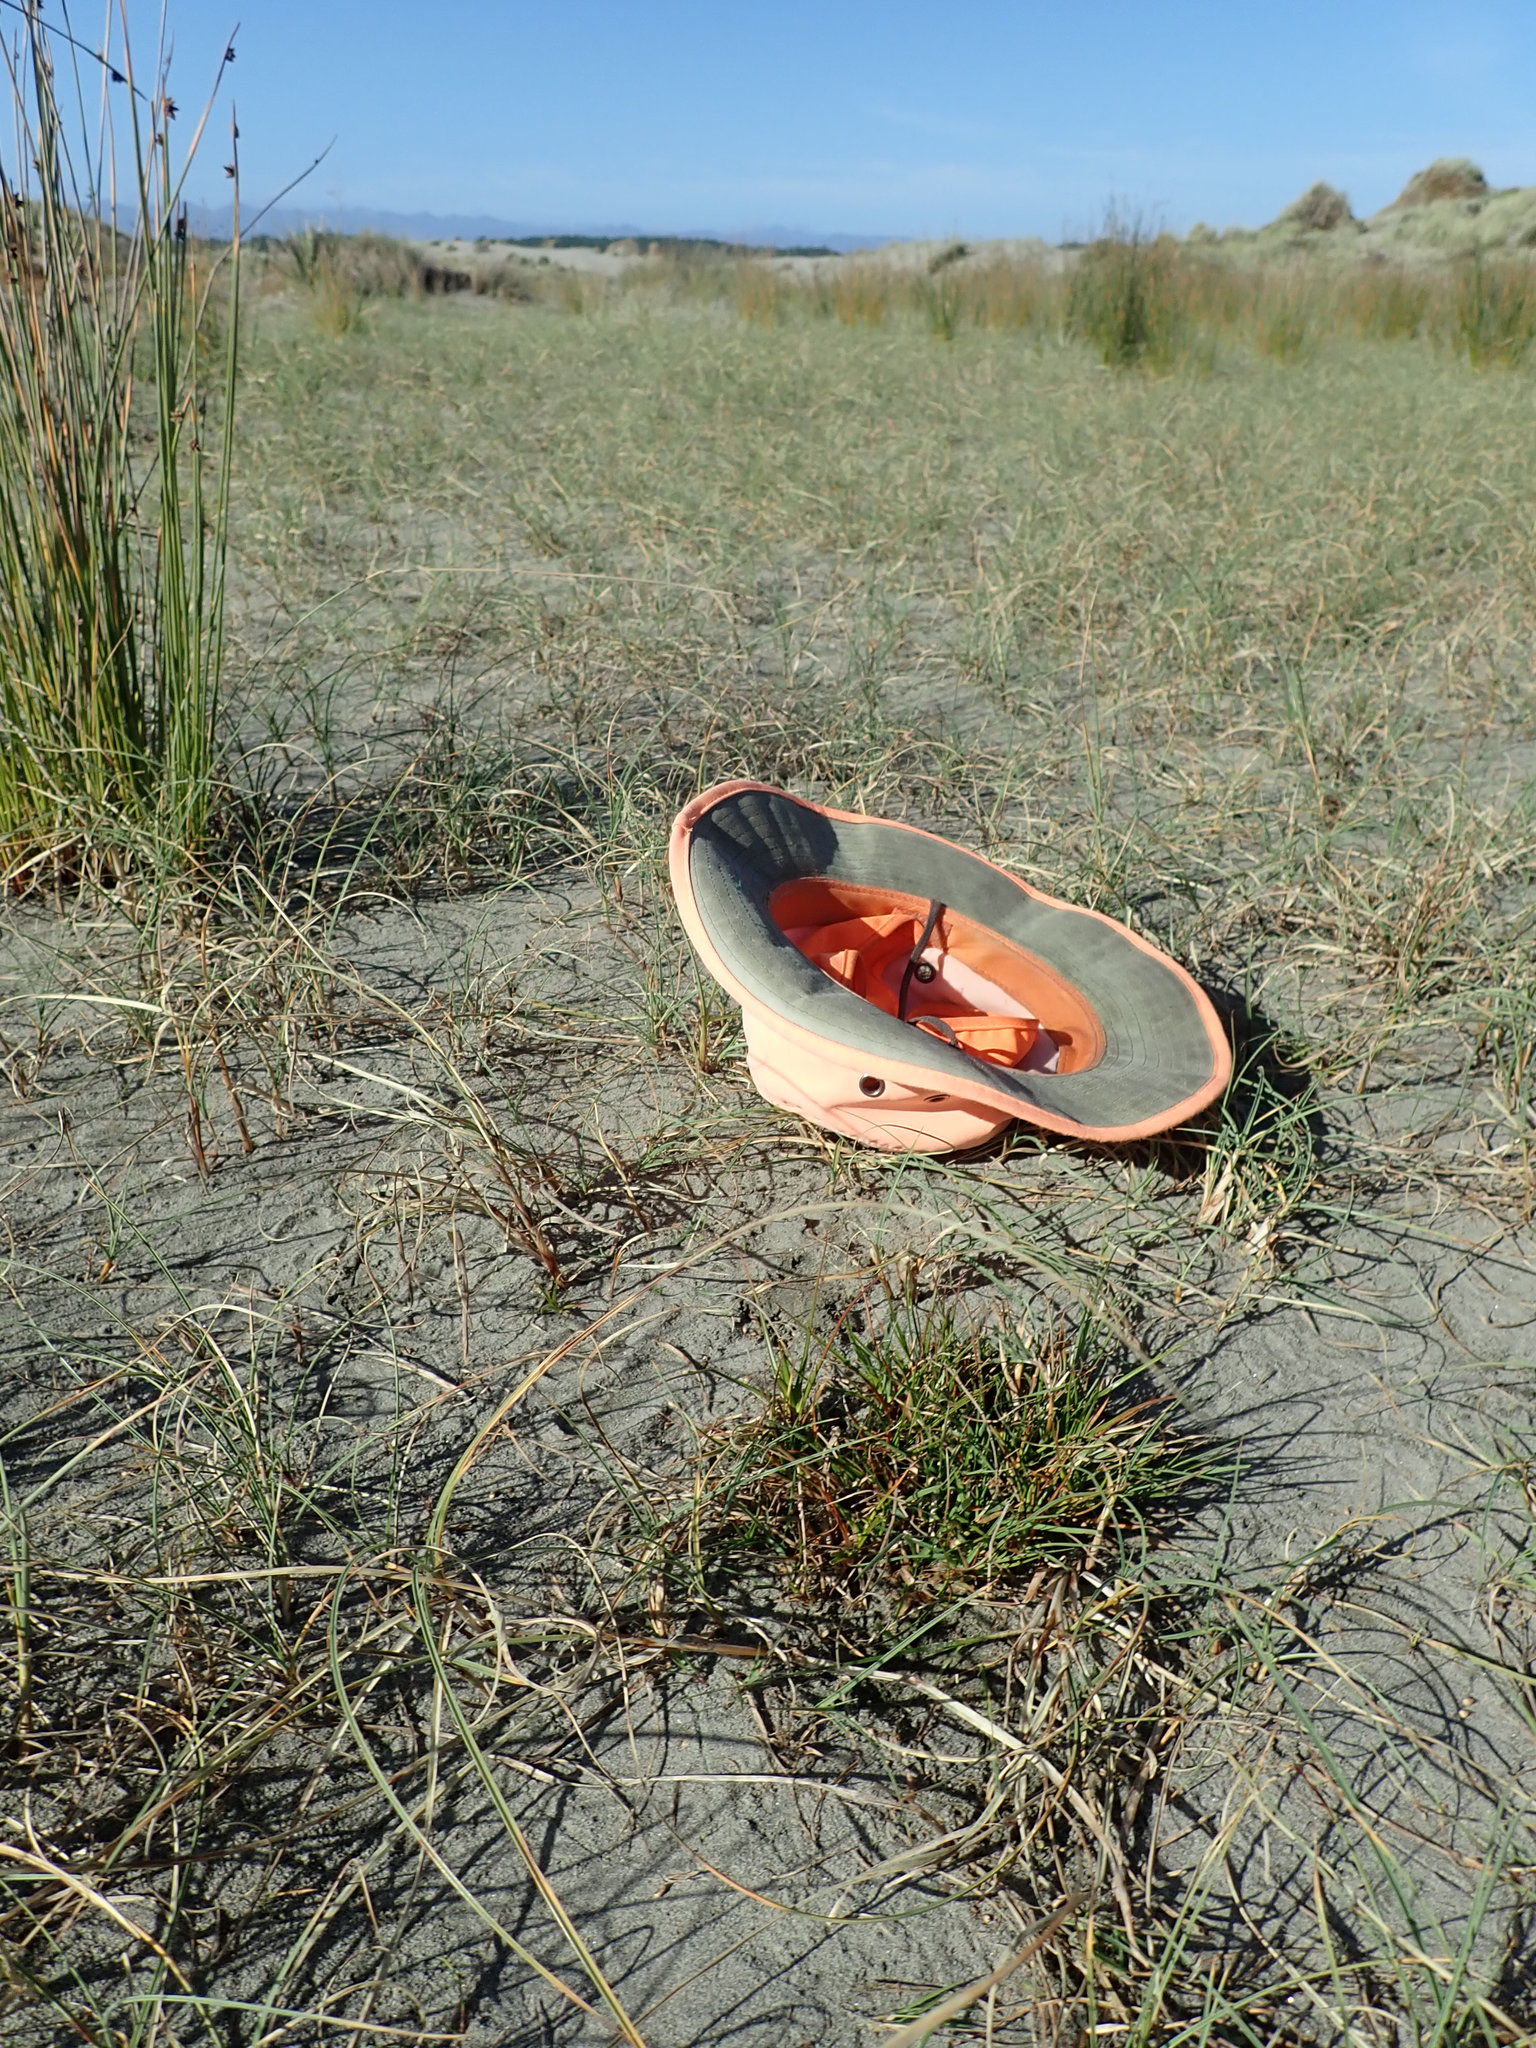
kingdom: Plantae
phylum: Tracheophyta
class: Magnoliopsida
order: Lamiales
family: Plantaginaceae
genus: Plantago
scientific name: Plantago coronopus
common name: Buck's-horn plantain
